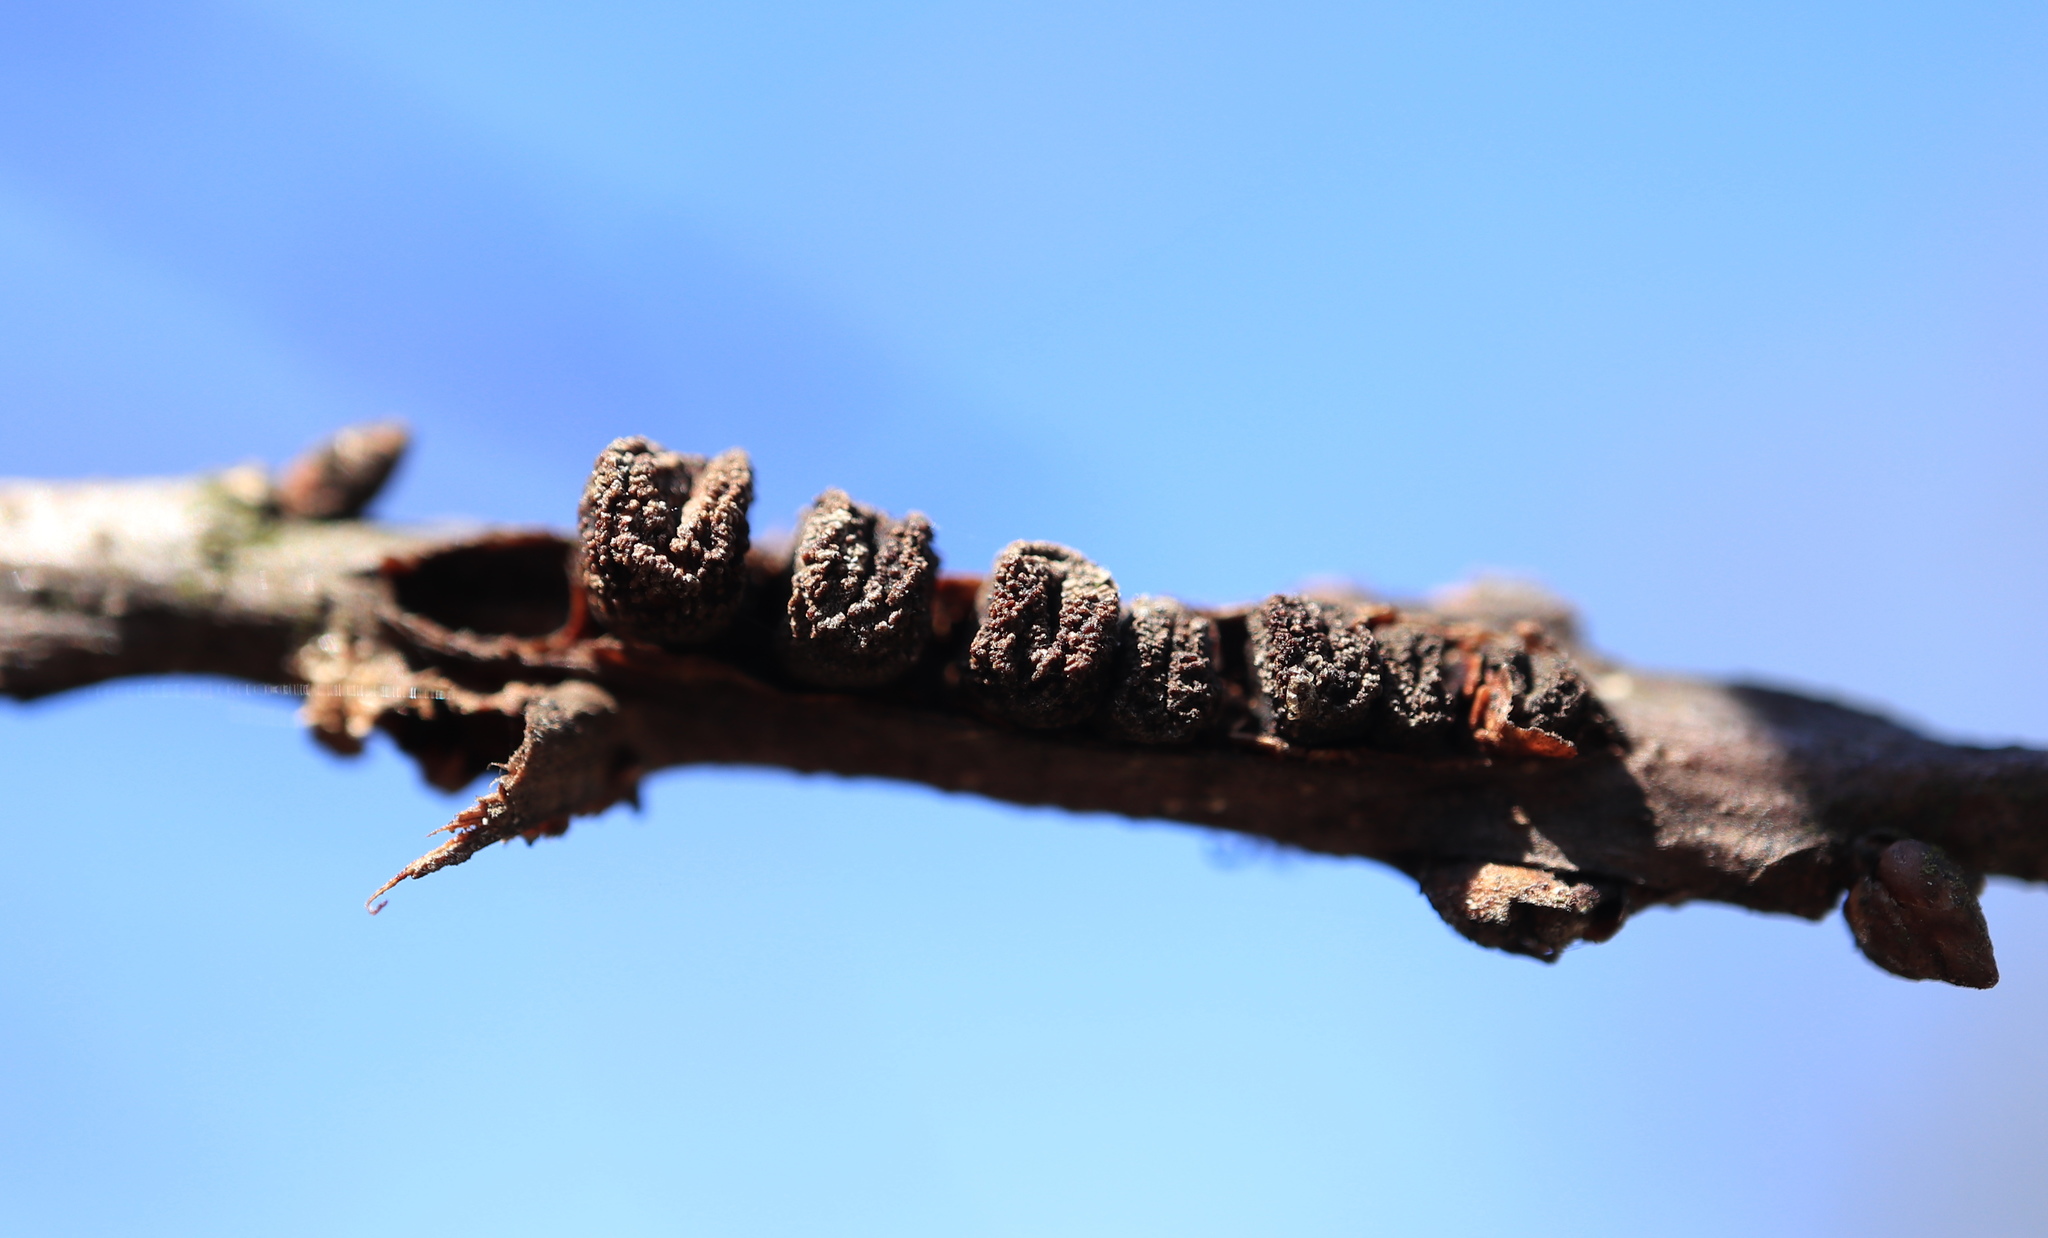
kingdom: Animalia
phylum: Arthropoda
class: Insecta
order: Hymenoptera
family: Cynipidae
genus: Kokkocynips
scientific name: Kokkocynips difficilis
